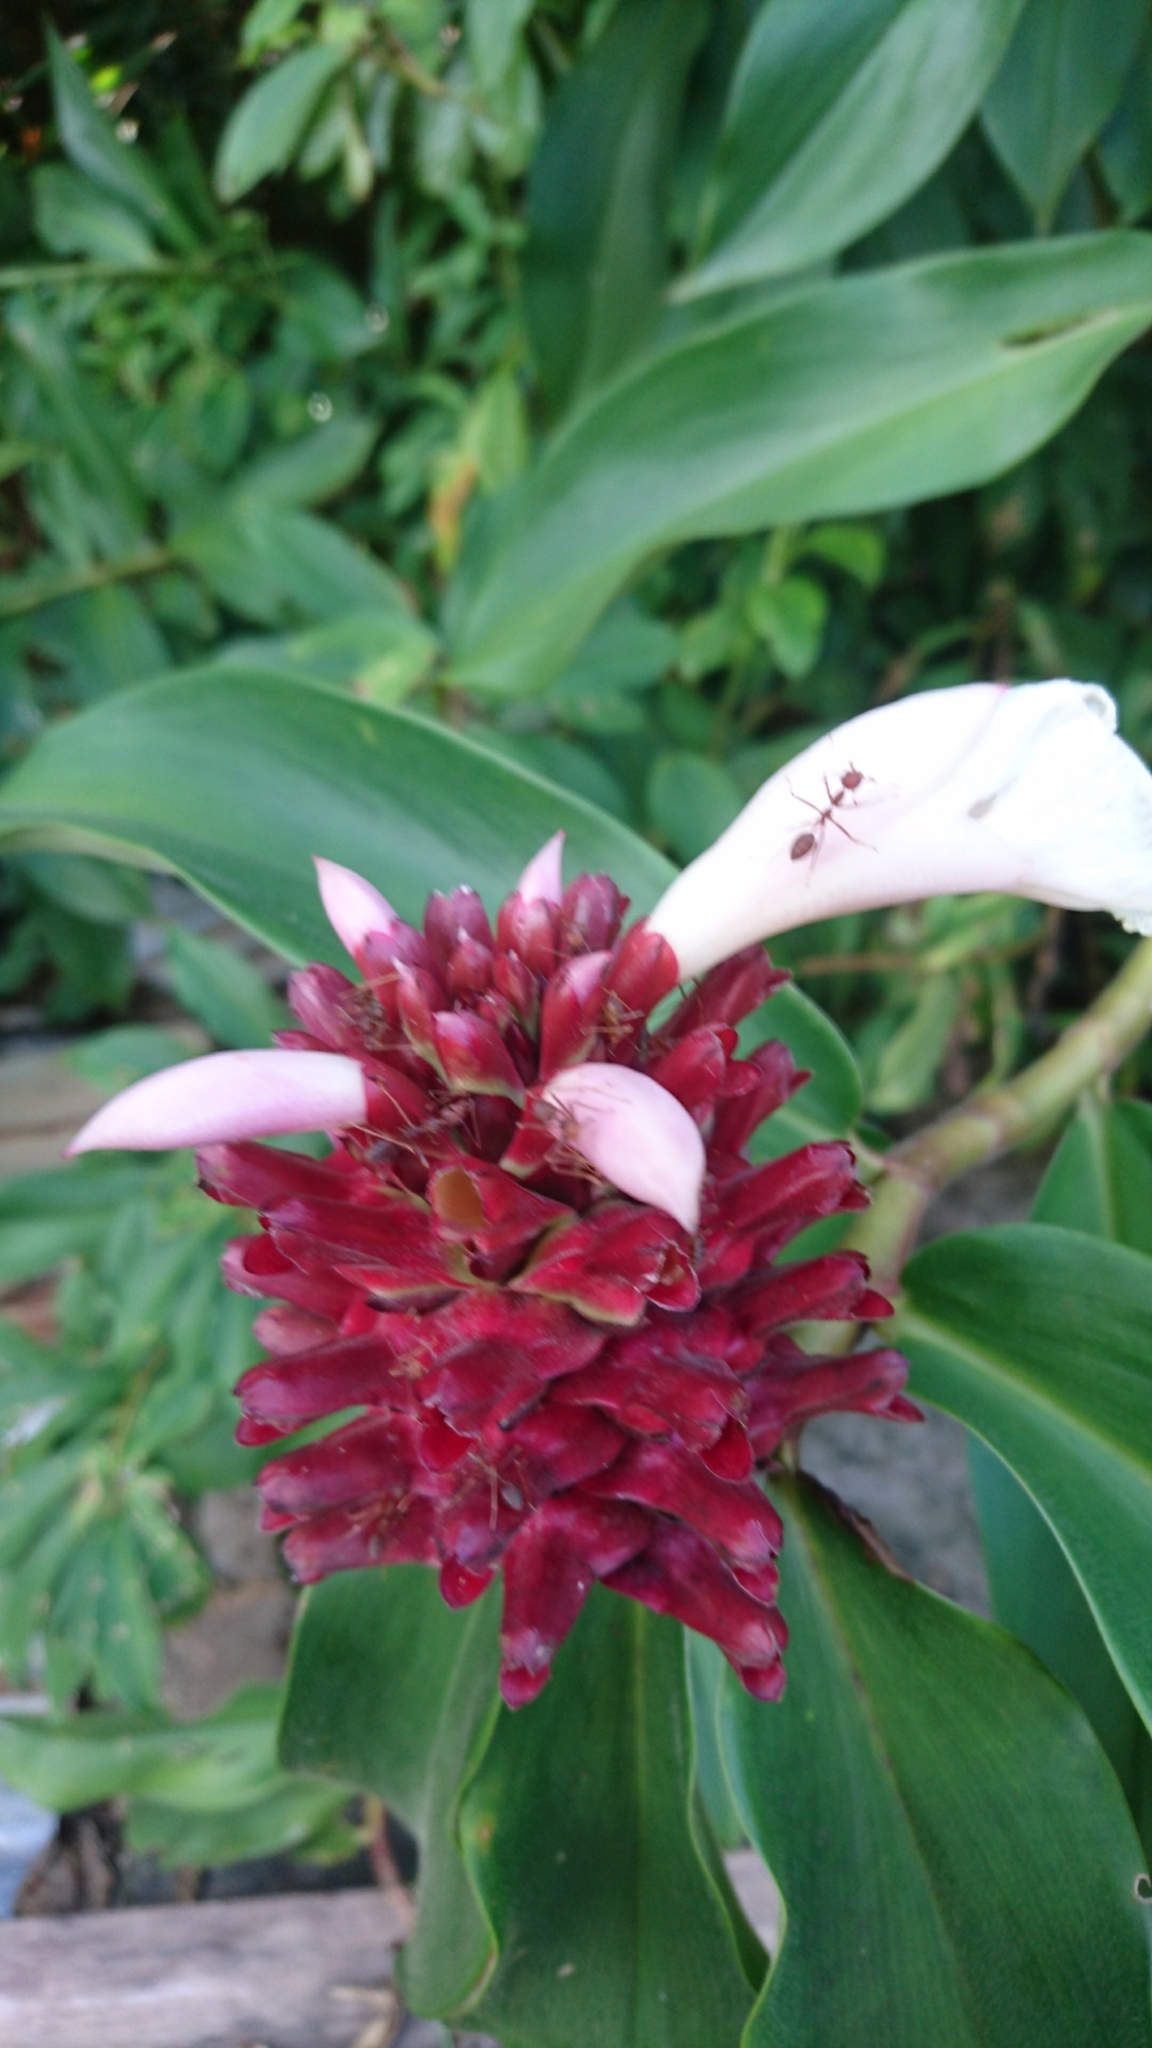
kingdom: Animalia
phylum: Arthropoda
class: Insecta
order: Hymenoptera
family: Formicidae
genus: Oecophylla
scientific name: Oecophylla smaragdina
